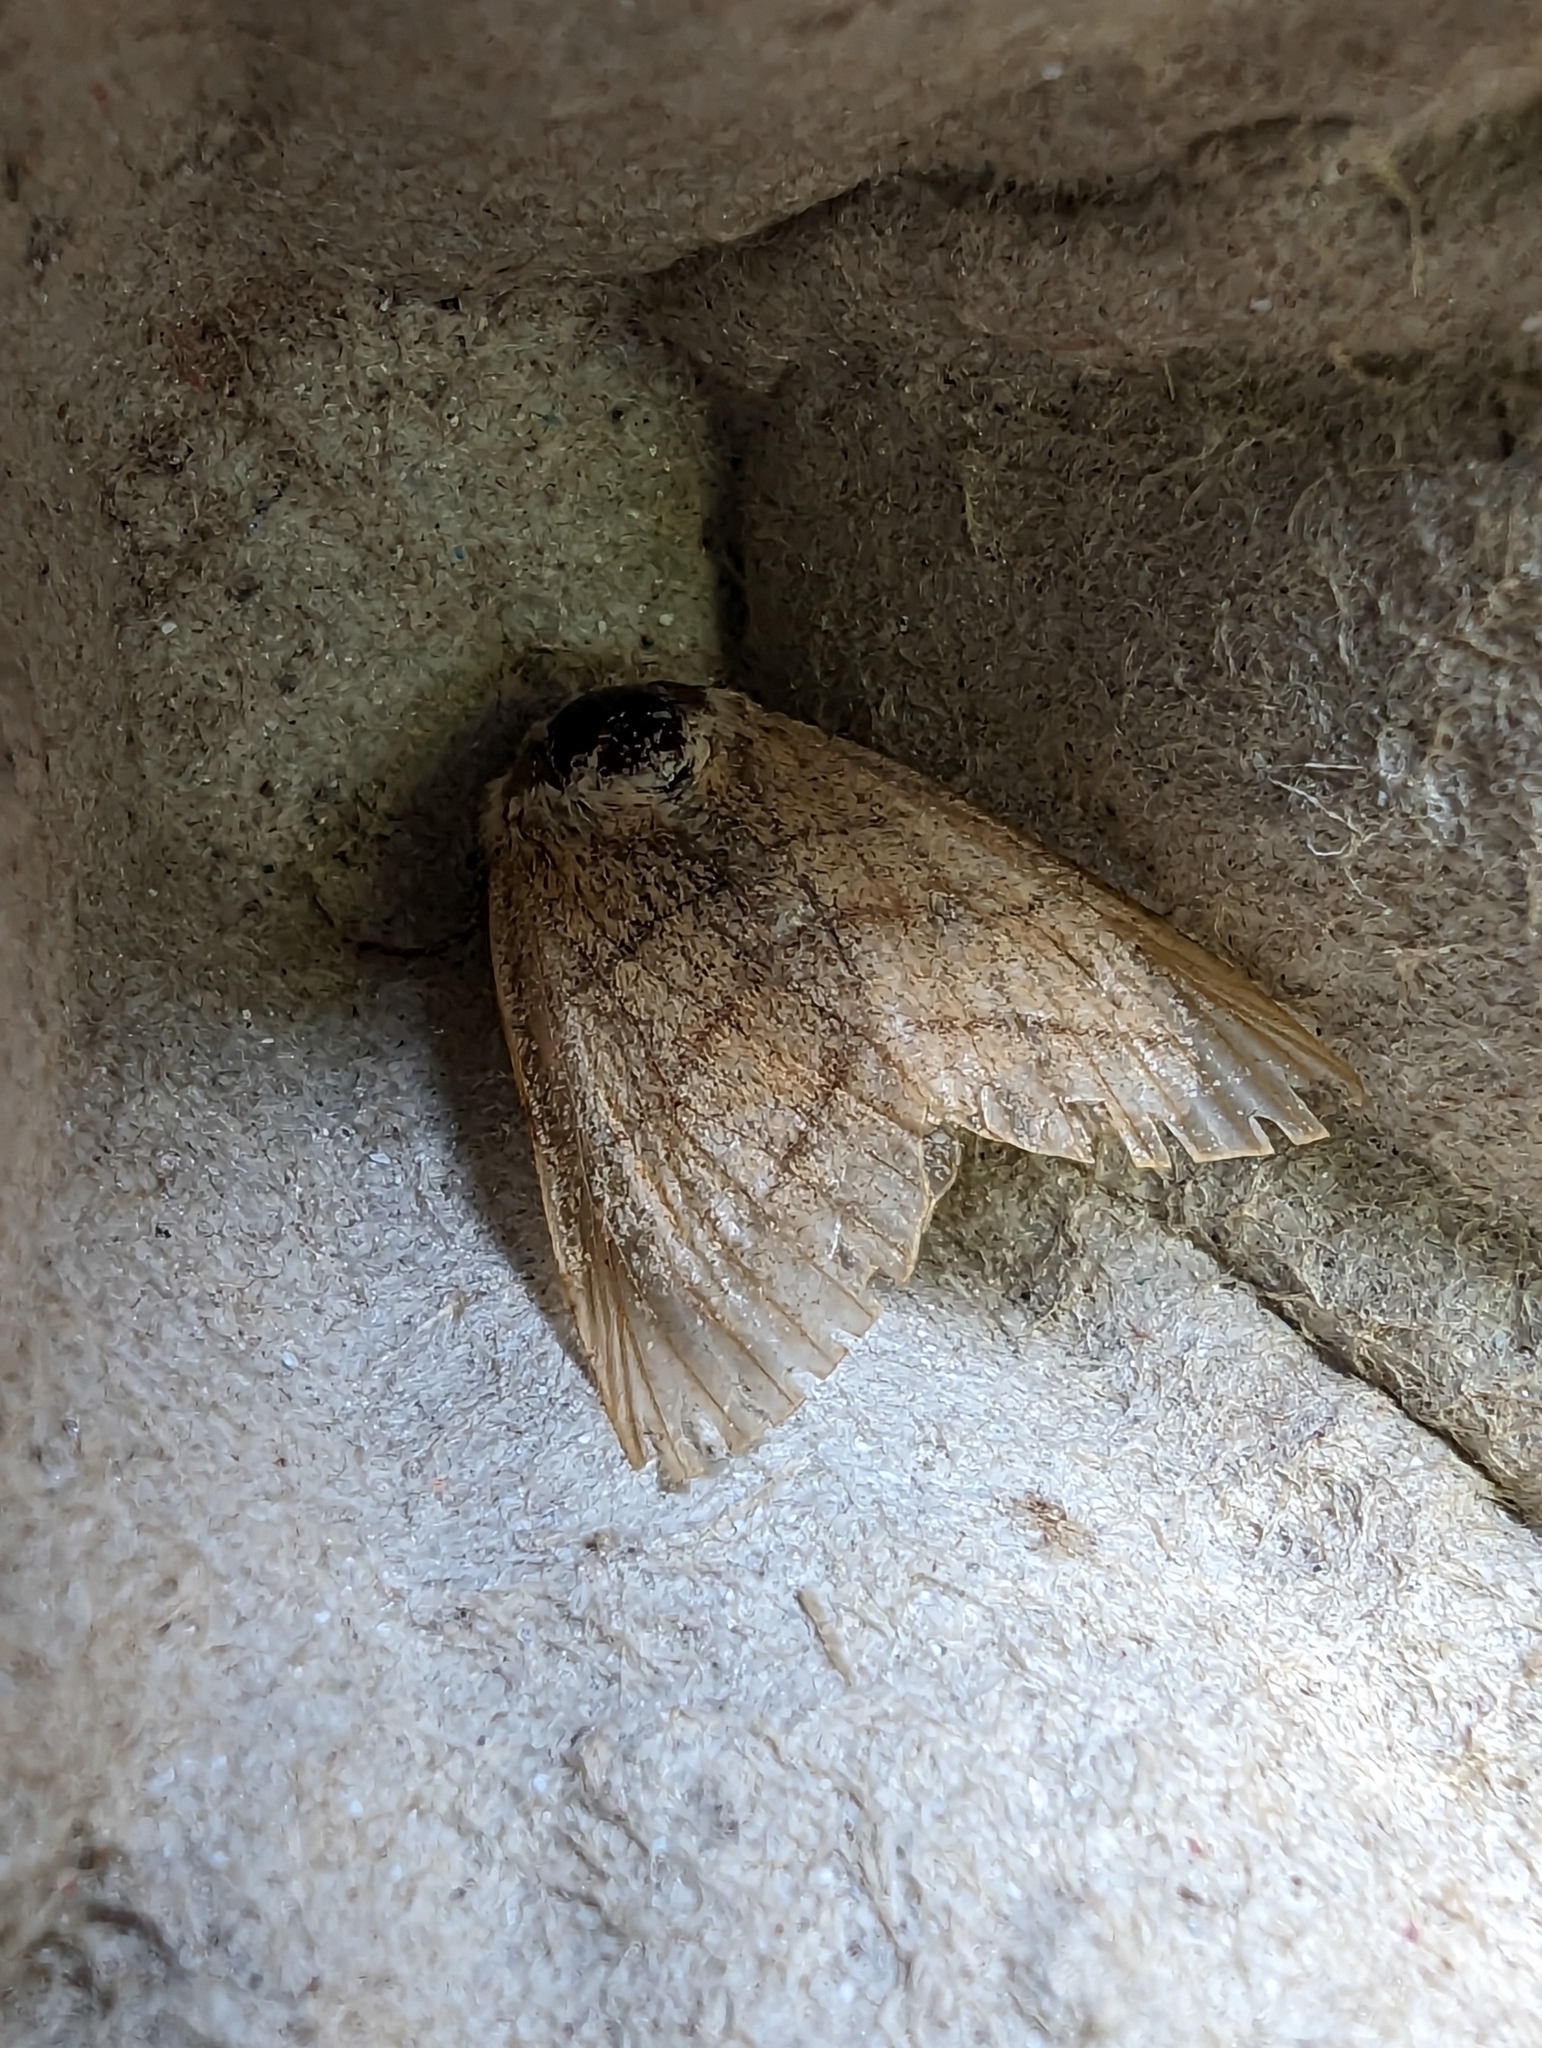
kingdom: Animalia
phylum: Arthropoda
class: Insecta
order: Lepidoptera
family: Noctuidae
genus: Charanyca
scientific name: Charanyca trigrammica
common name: Treble lines
